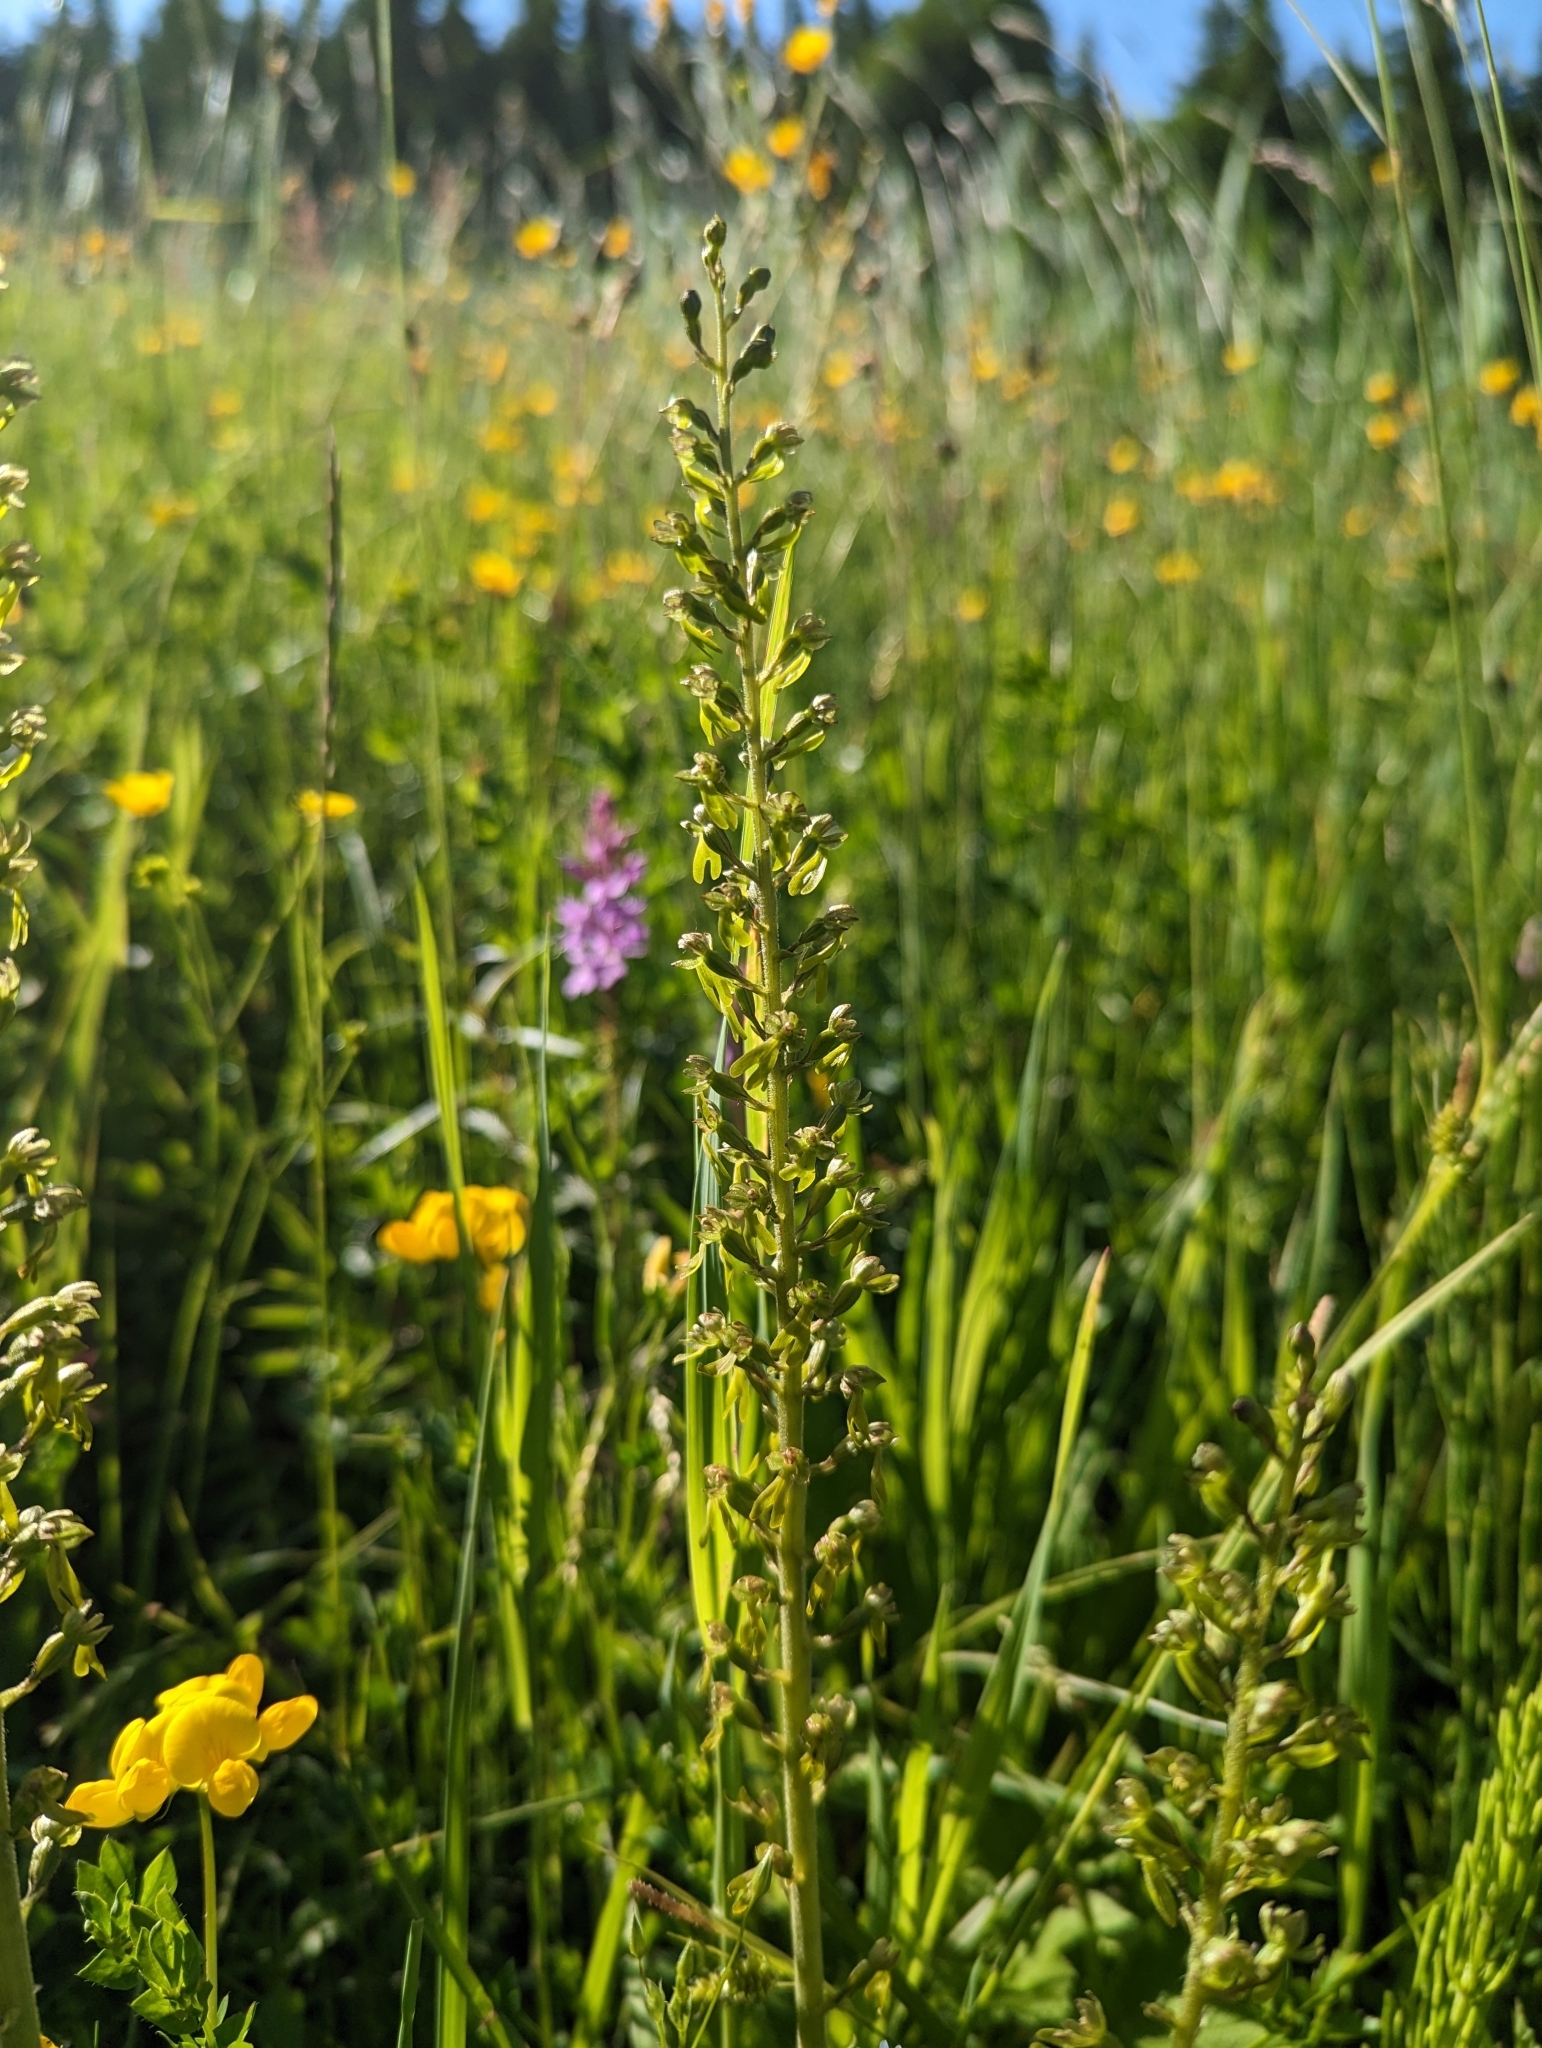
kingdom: Plantae
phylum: Tracheophyta
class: Liliopsida
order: Asparagales
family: Orchidaceae
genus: Neottia
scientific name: Neottia ovata
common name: Common twayblade
